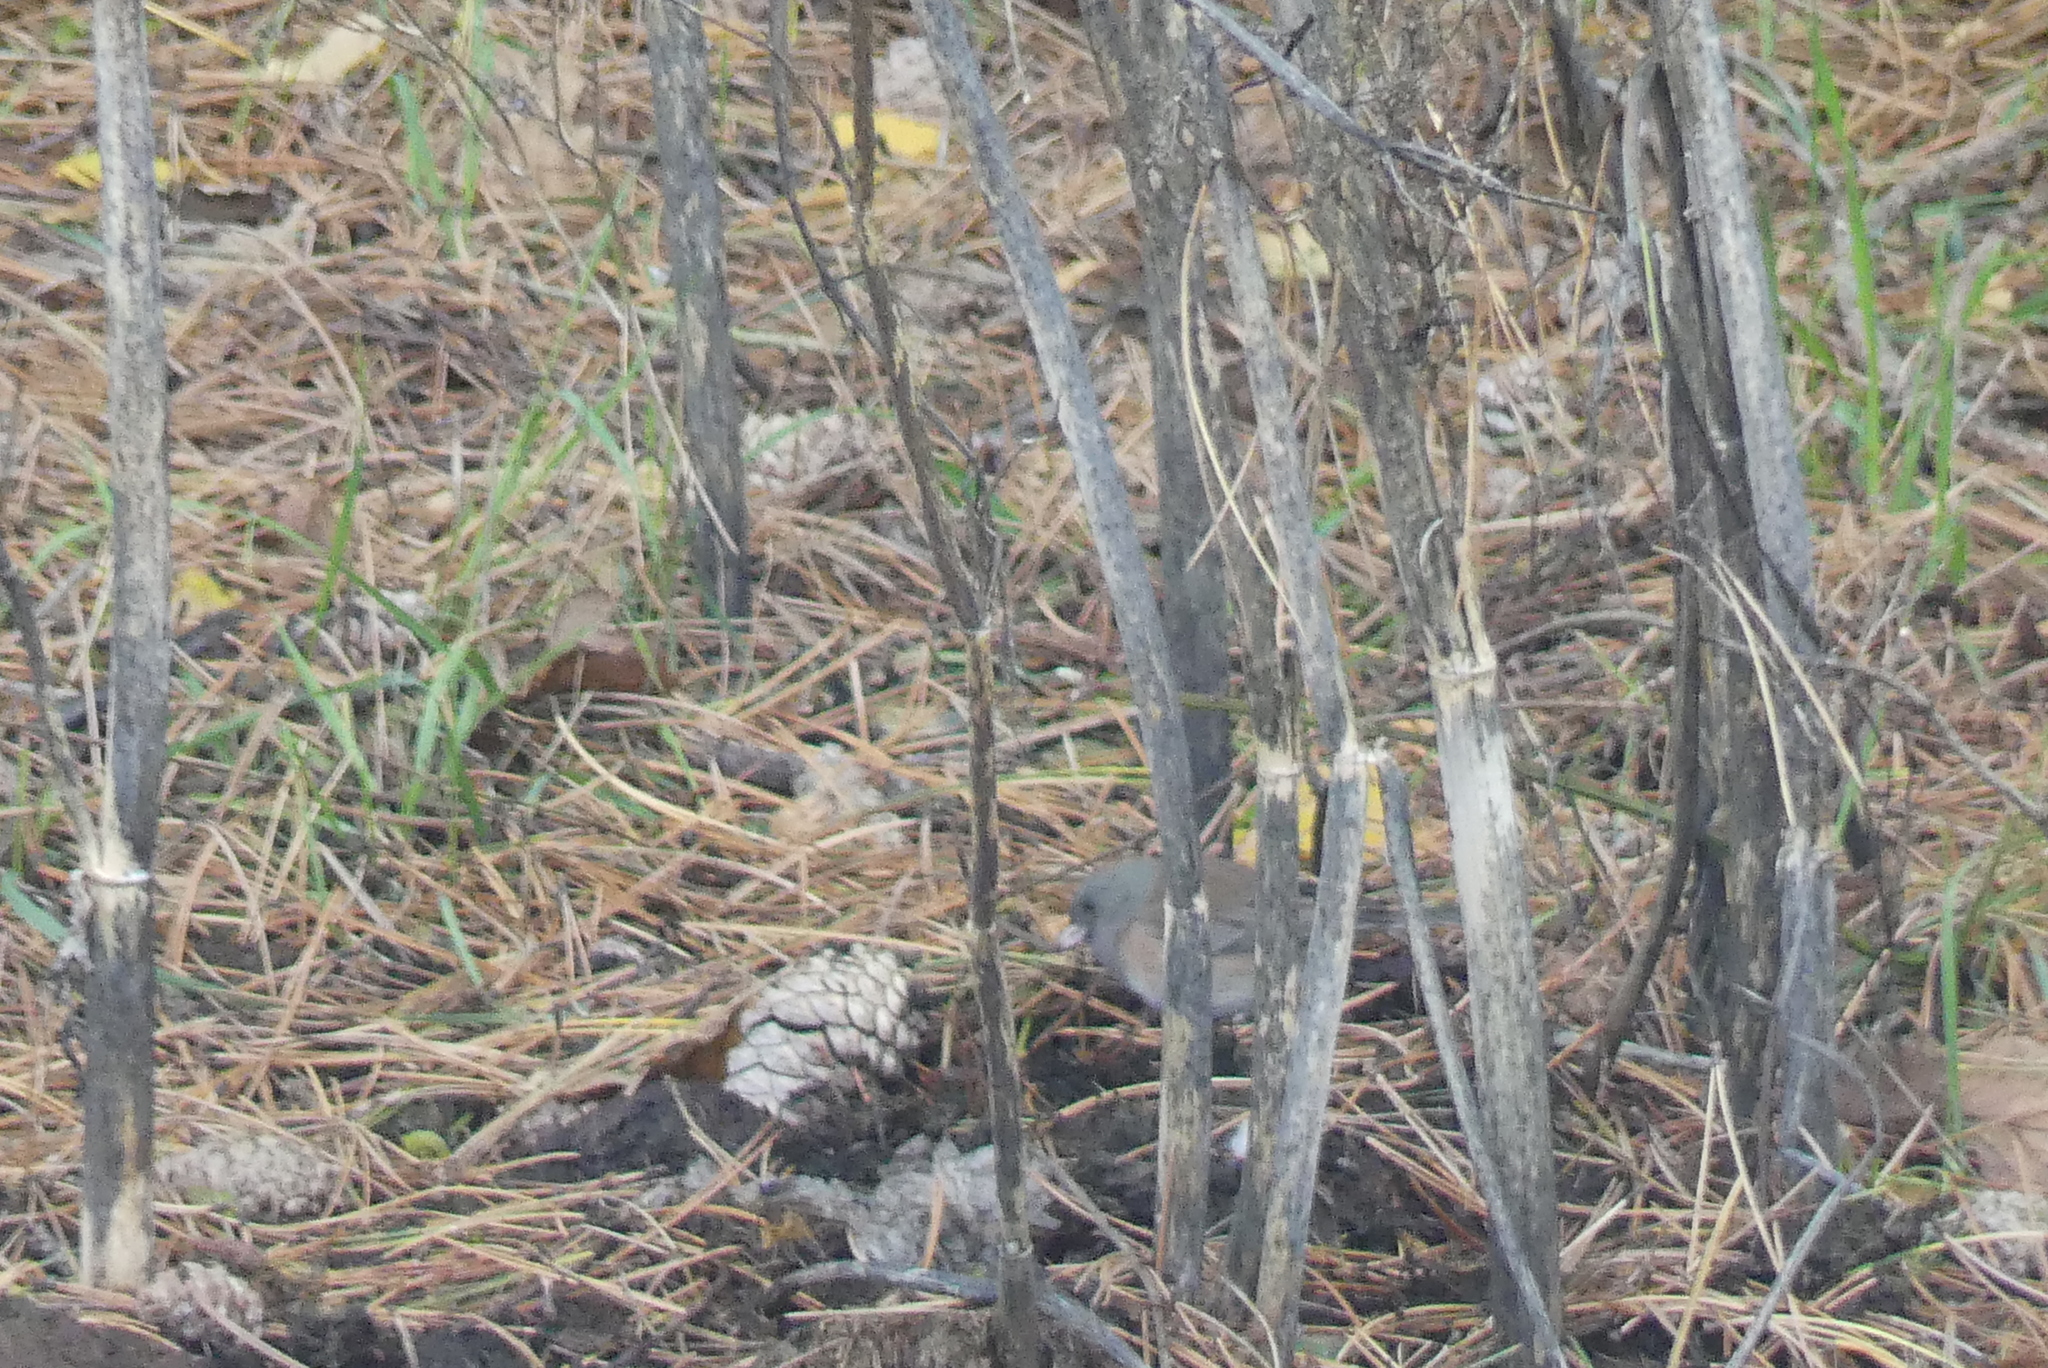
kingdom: Animalia
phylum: Chordata
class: Aves
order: Passeriformes
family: Passerellidae
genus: Junco
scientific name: Junco hyemalis
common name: Dark-eyed junco
